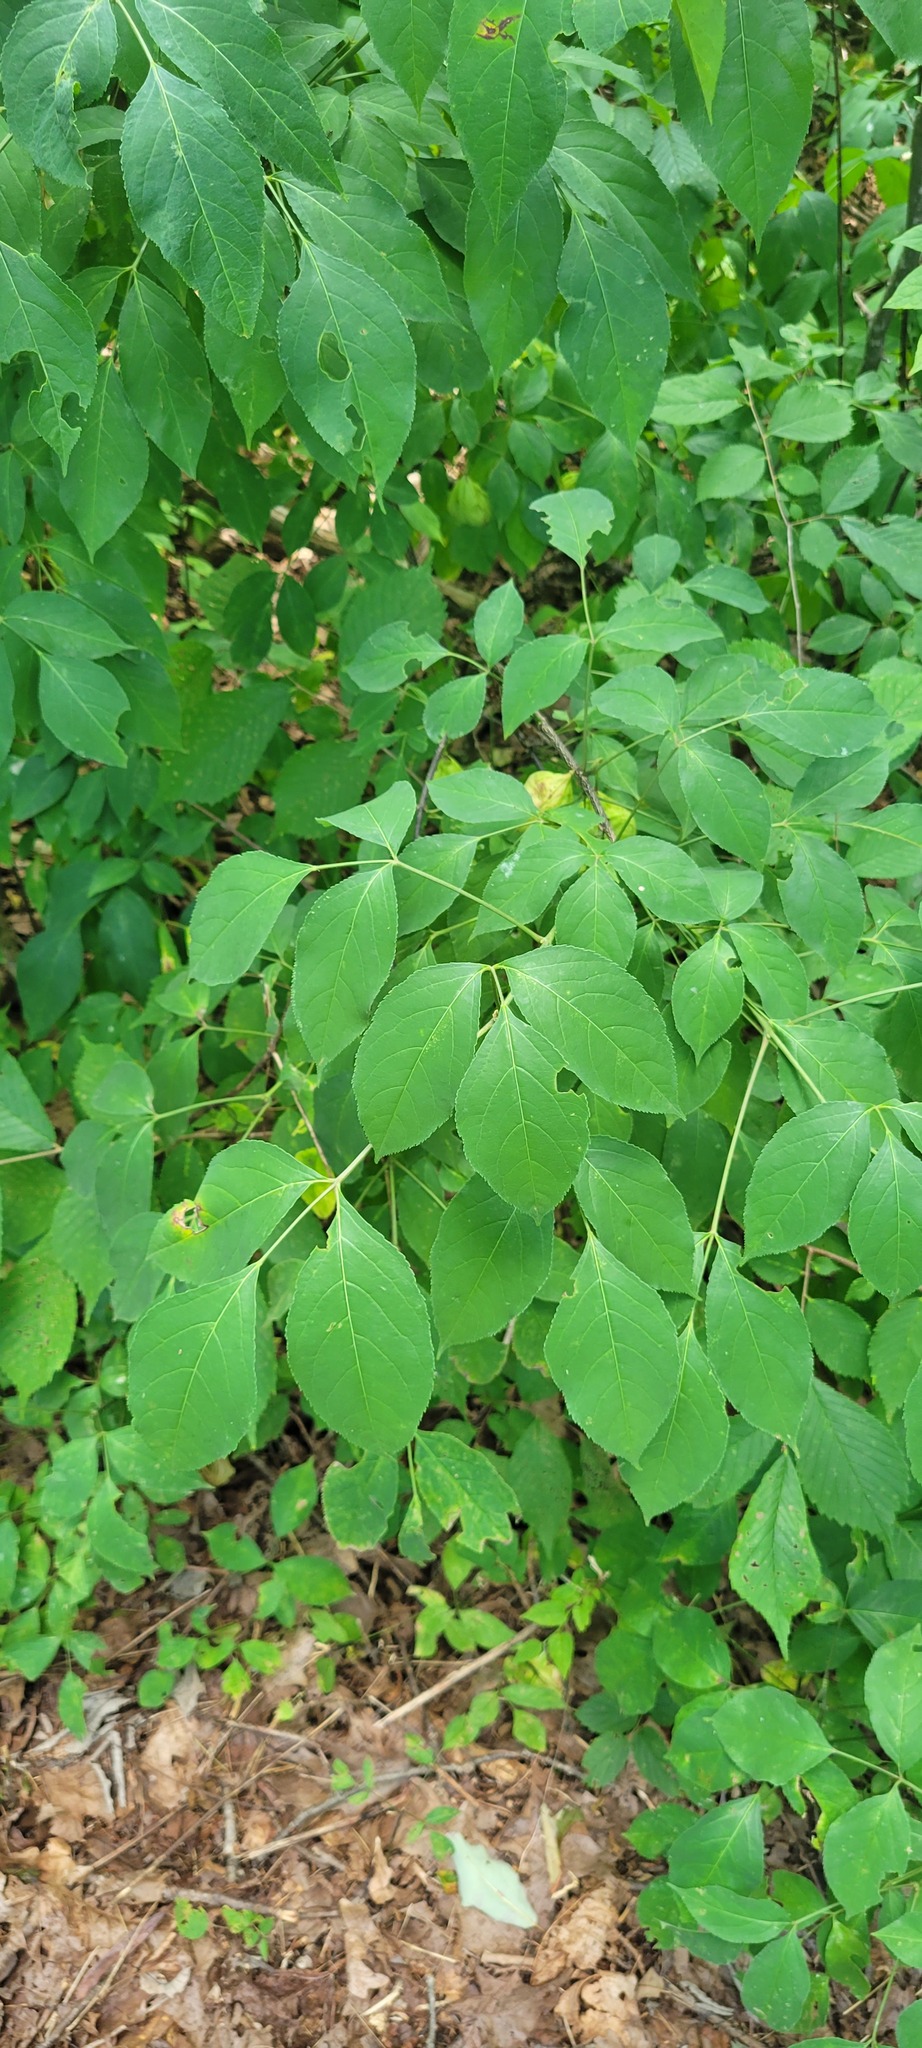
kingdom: Plantae
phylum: Tracheophyta
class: Magnoliopsida
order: Crossosomatales
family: Staphyleaceae
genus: Staphylea
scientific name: Staphylea trifolia
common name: American bladdernut
